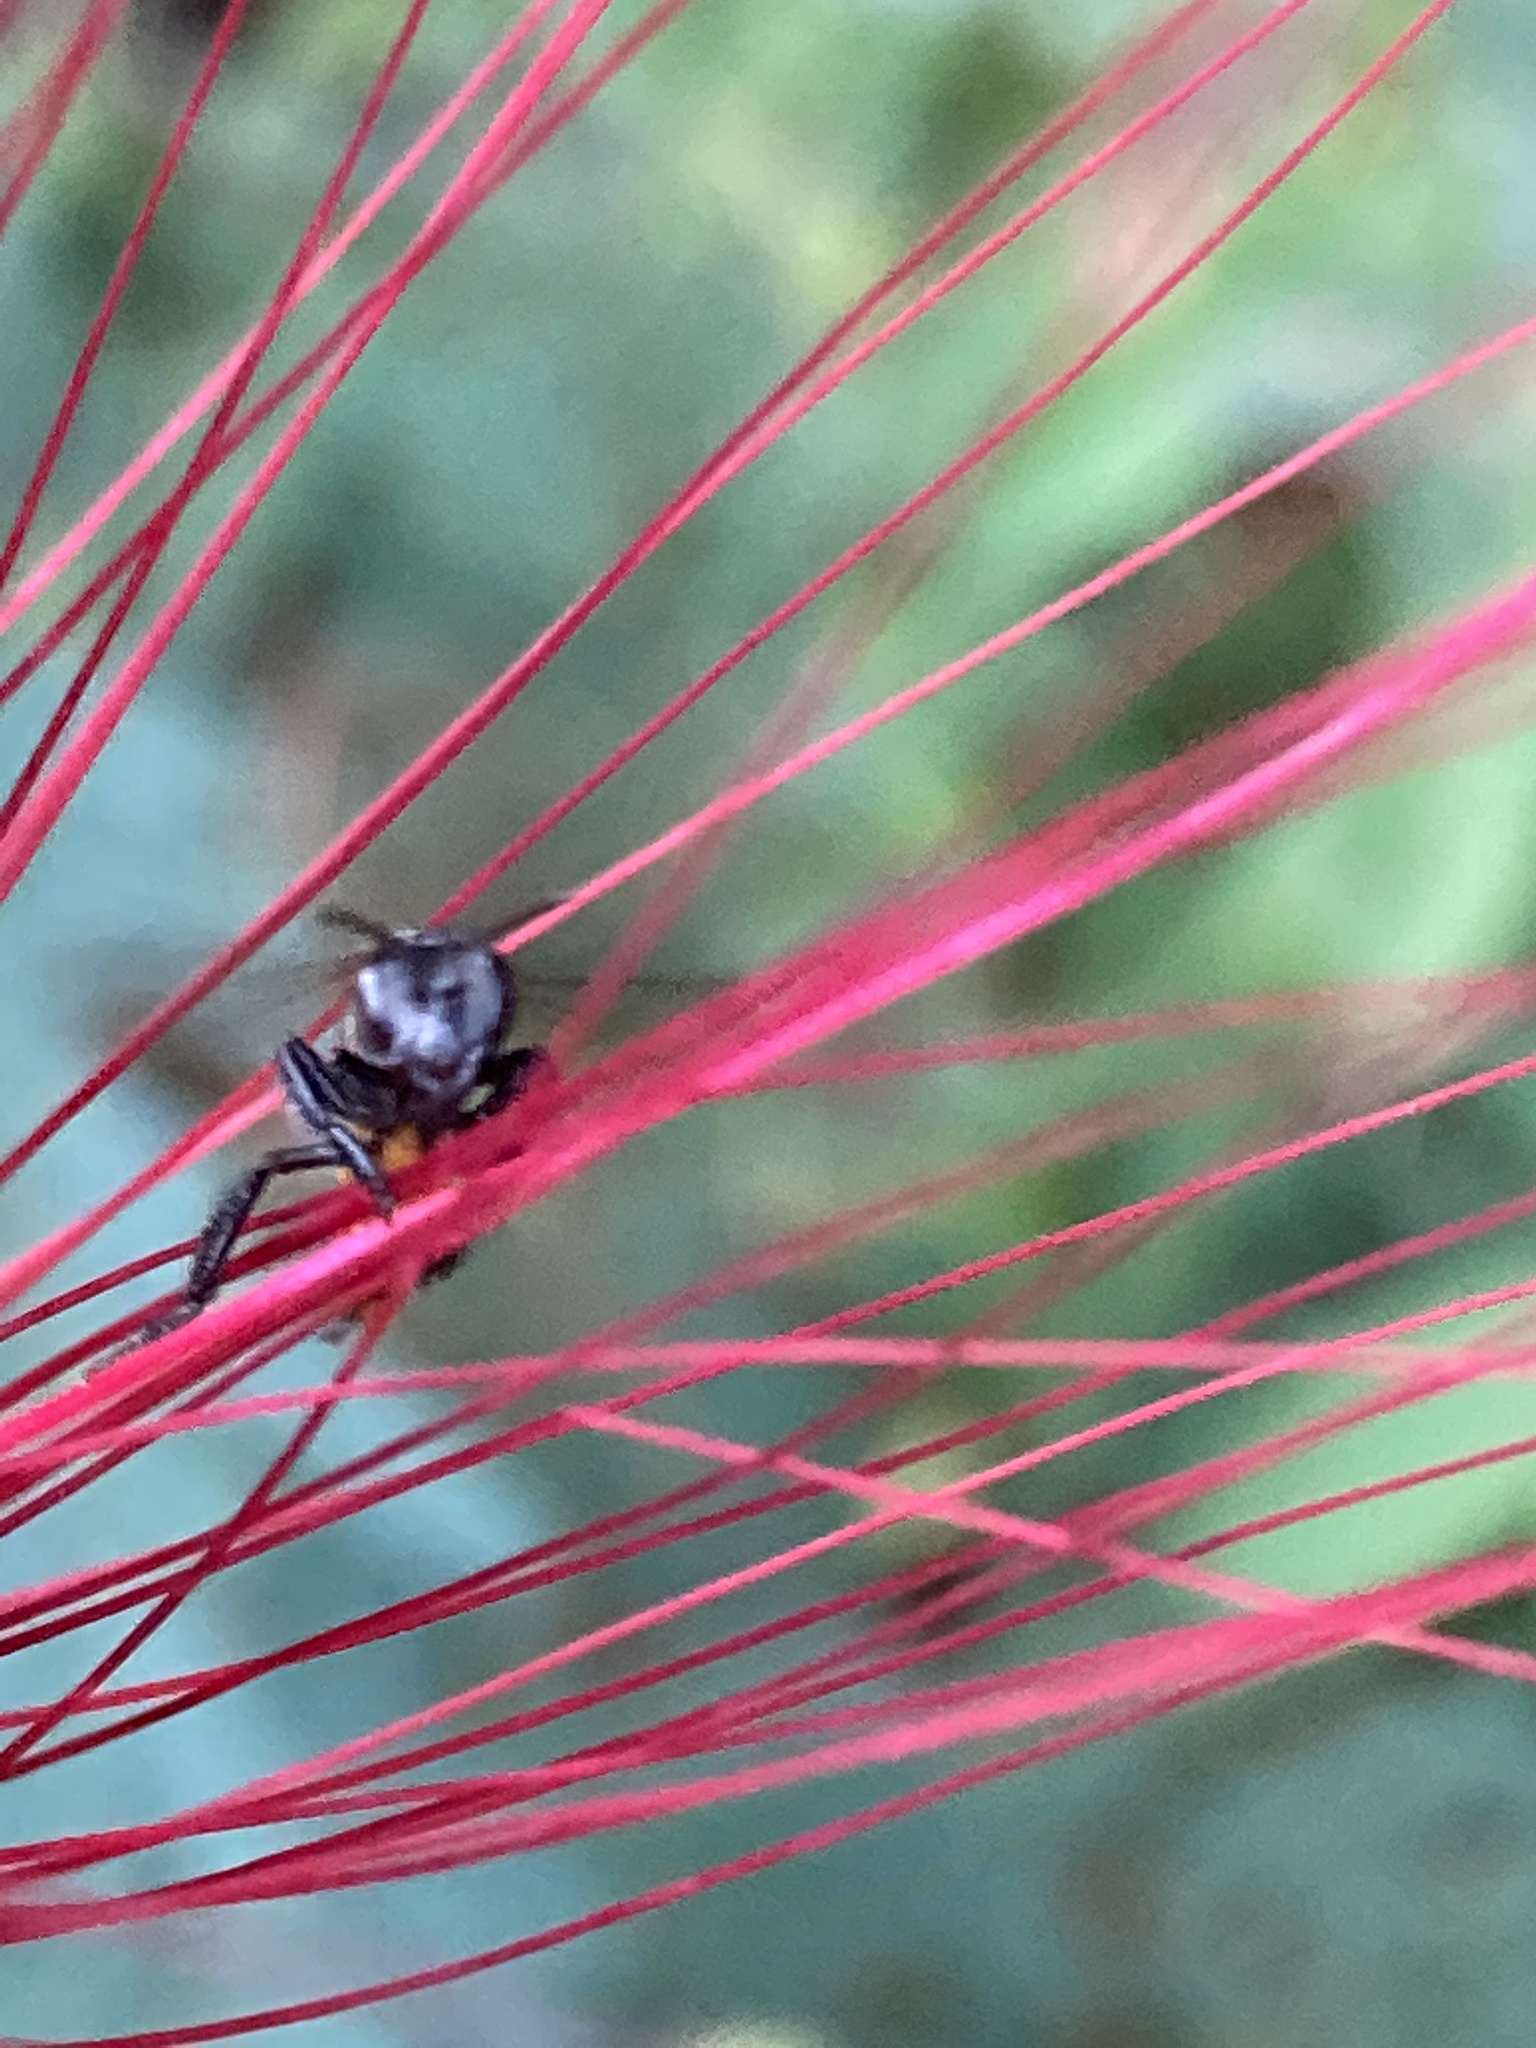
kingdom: Animalia
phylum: Arthropoda
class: Insecta
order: Hymenoptera
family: Apidae
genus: Trigona
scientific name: Trigona fulviventris
